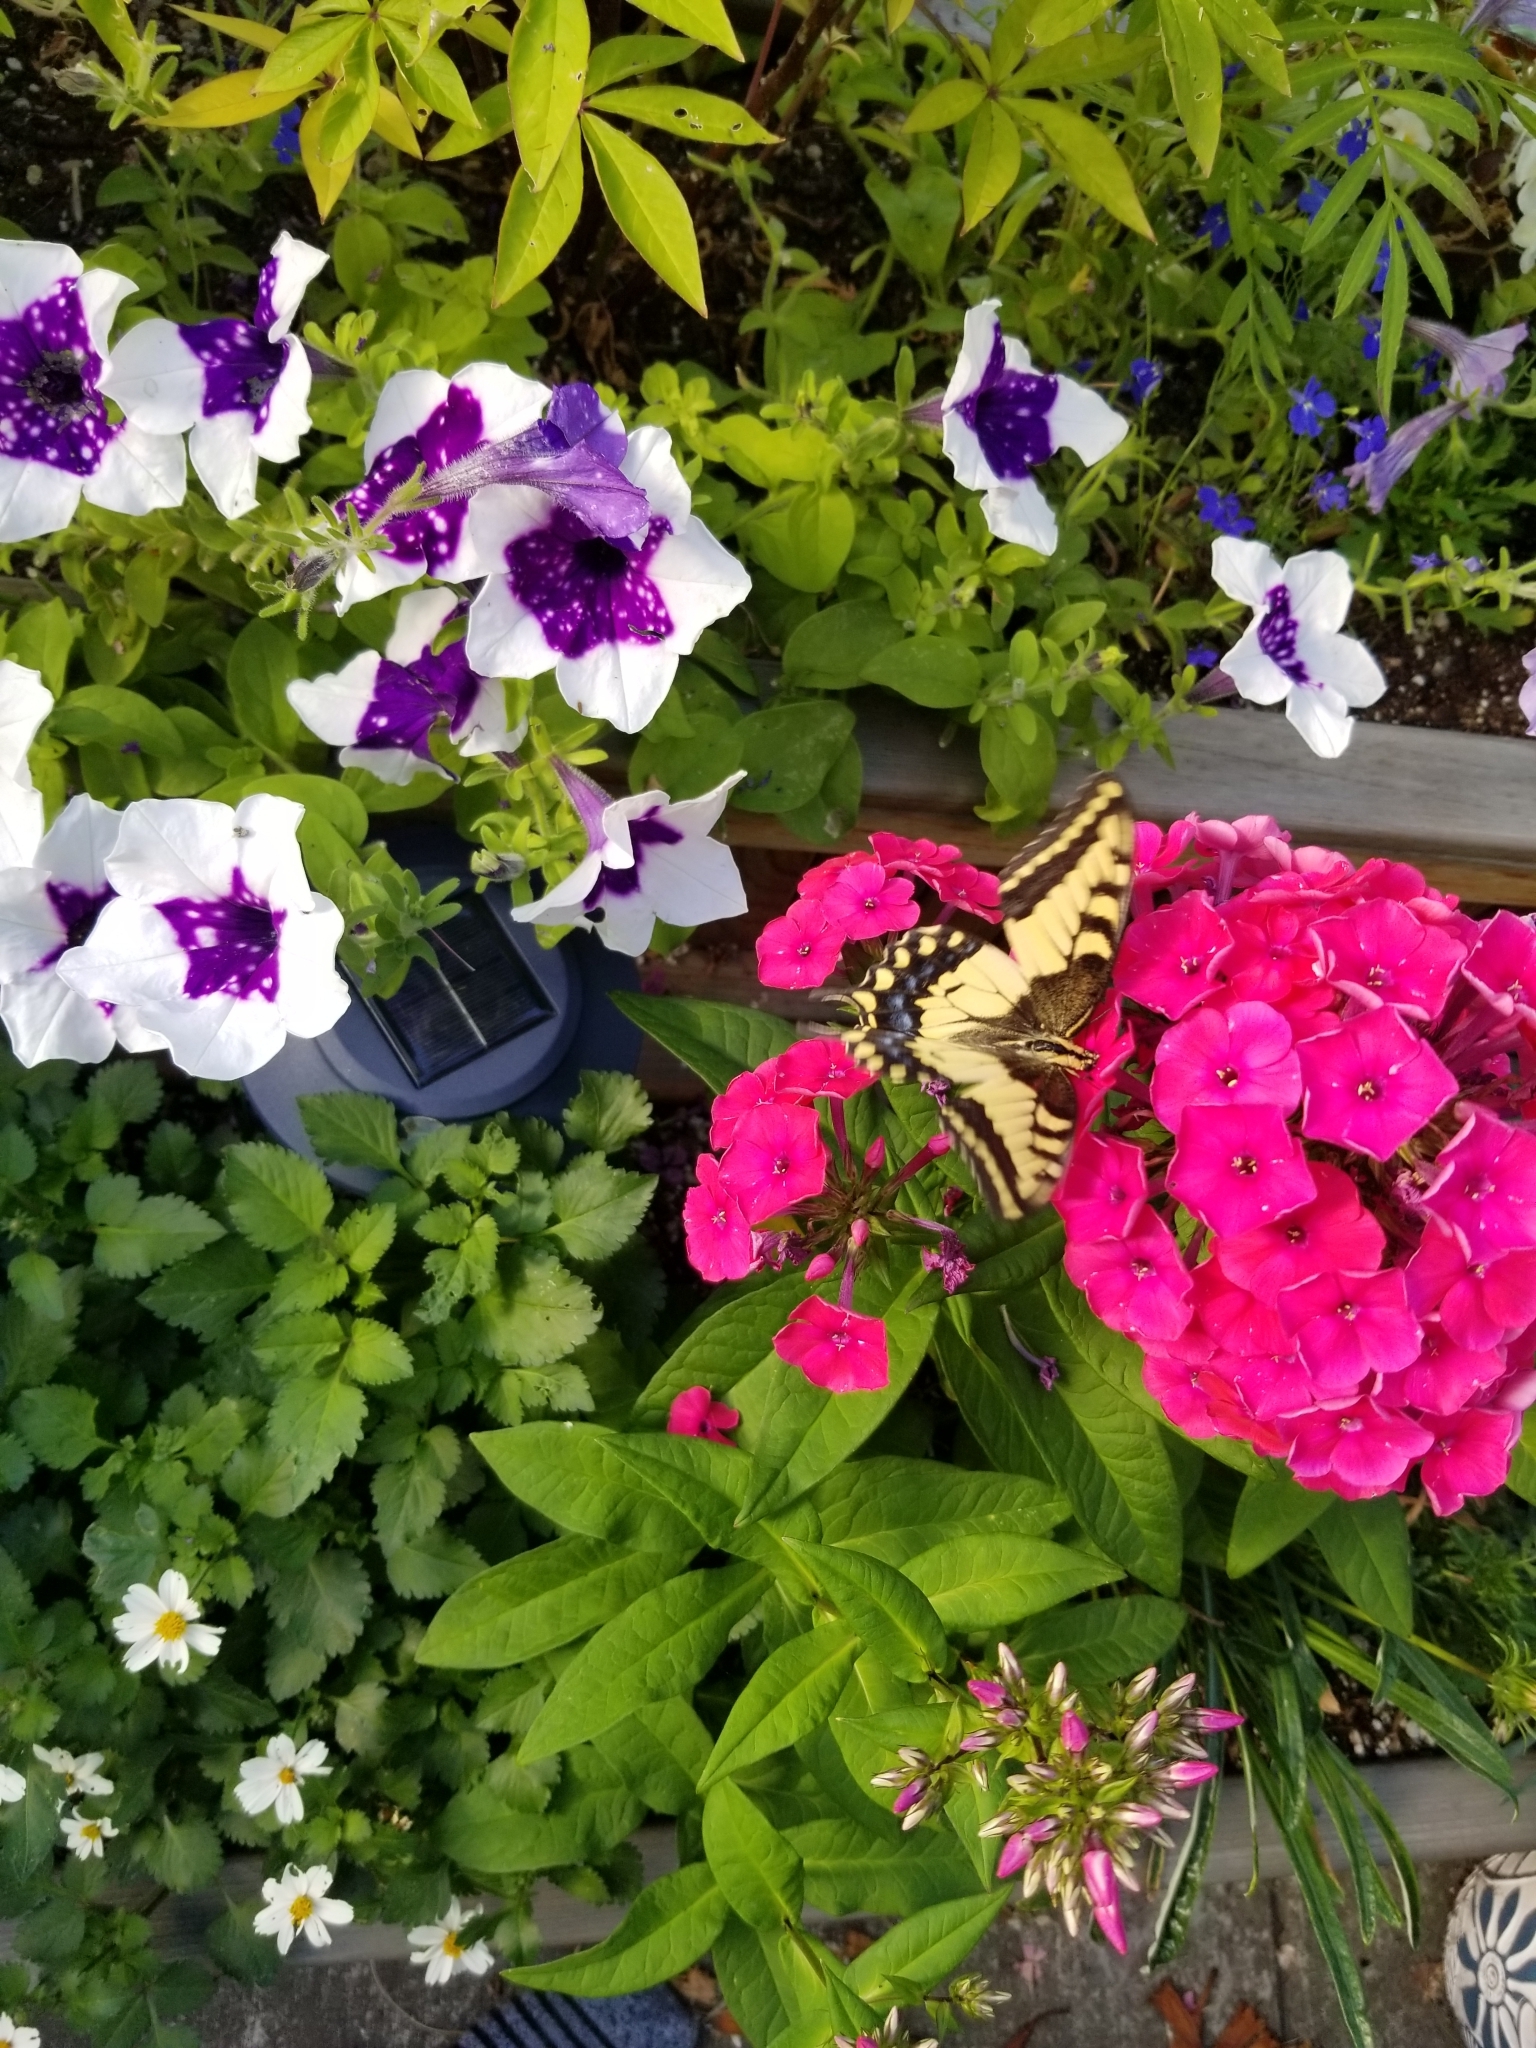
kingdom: Animalia
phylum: Arthropoda
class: Insecta
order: Lepidoptera
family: Papilionidae
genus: Papilio
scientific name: Papilio
